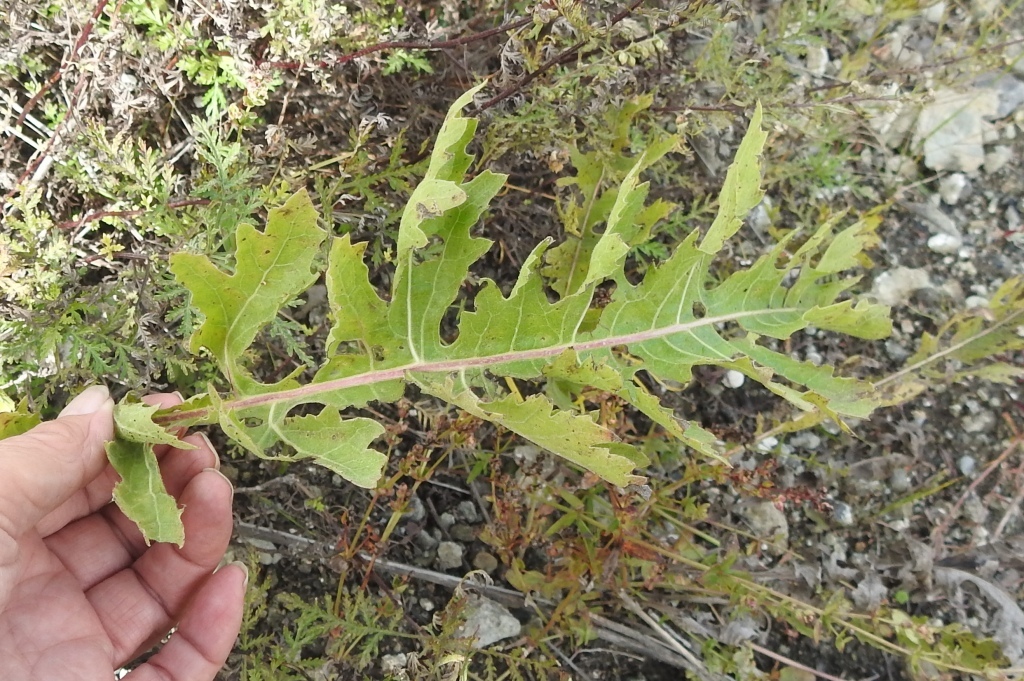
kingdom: Plantae
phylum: Tracheophyta
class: Magnoliopsida
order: Asterales
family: Asteraceae
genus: Leuzea
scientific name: Leuzea uniflora
